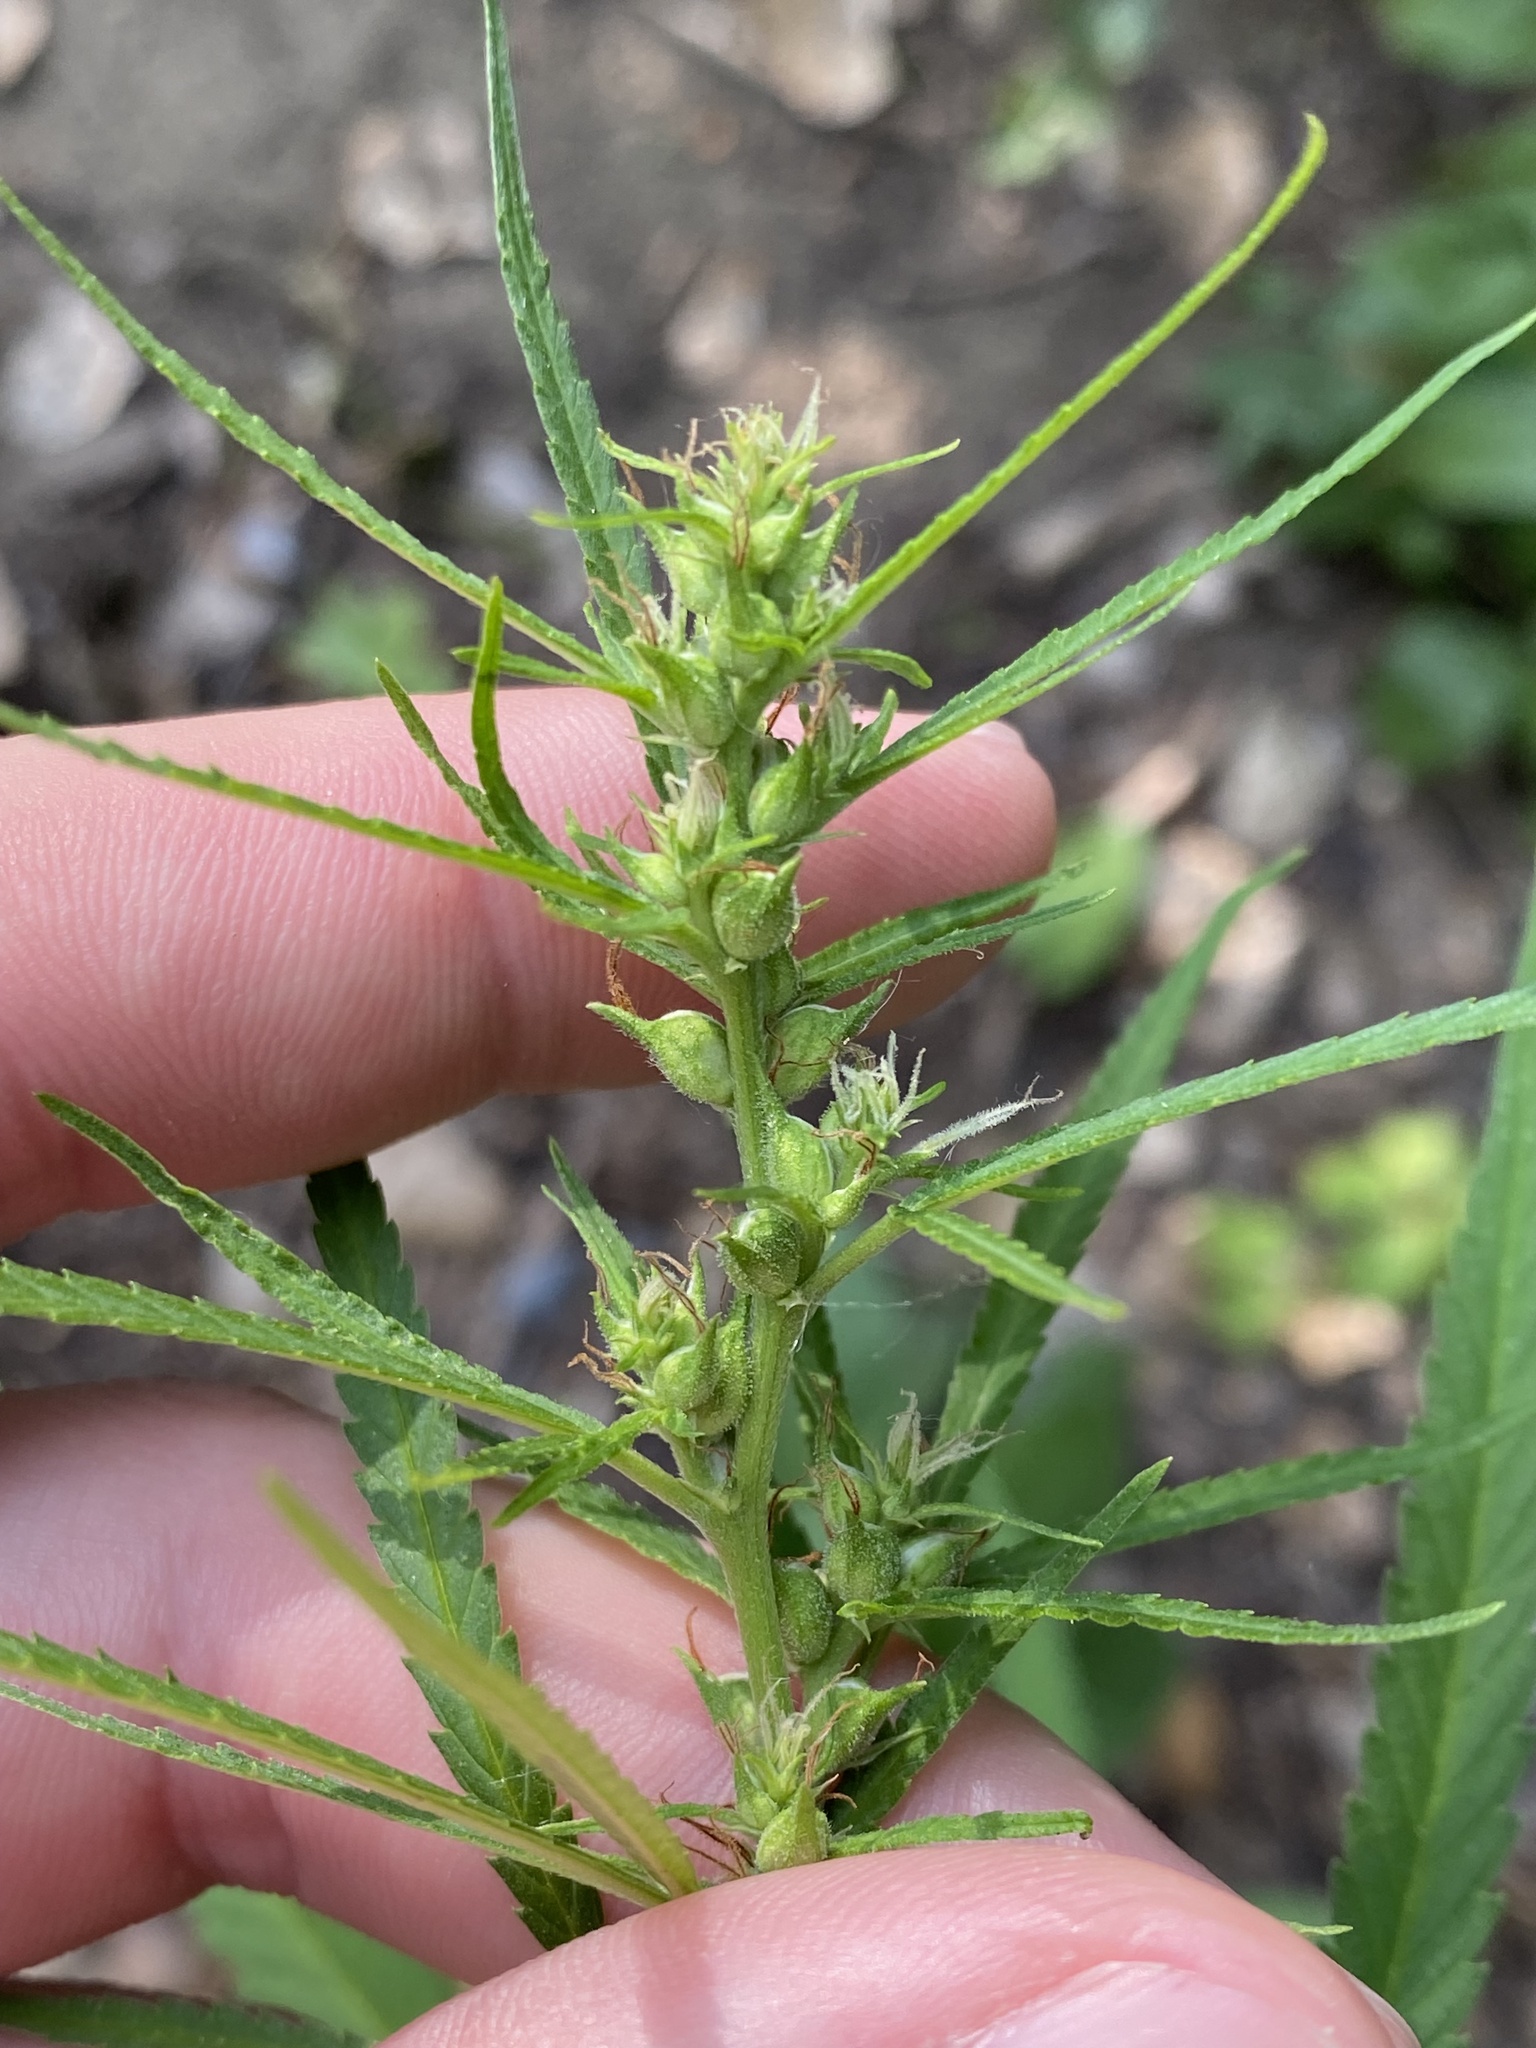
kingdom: Plantae
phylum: Tracheophyta
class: Magnoliopsida
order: Rosales
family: Cannabaceae
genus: Cannabis
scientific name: Cannabis sativa
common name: Hemp
